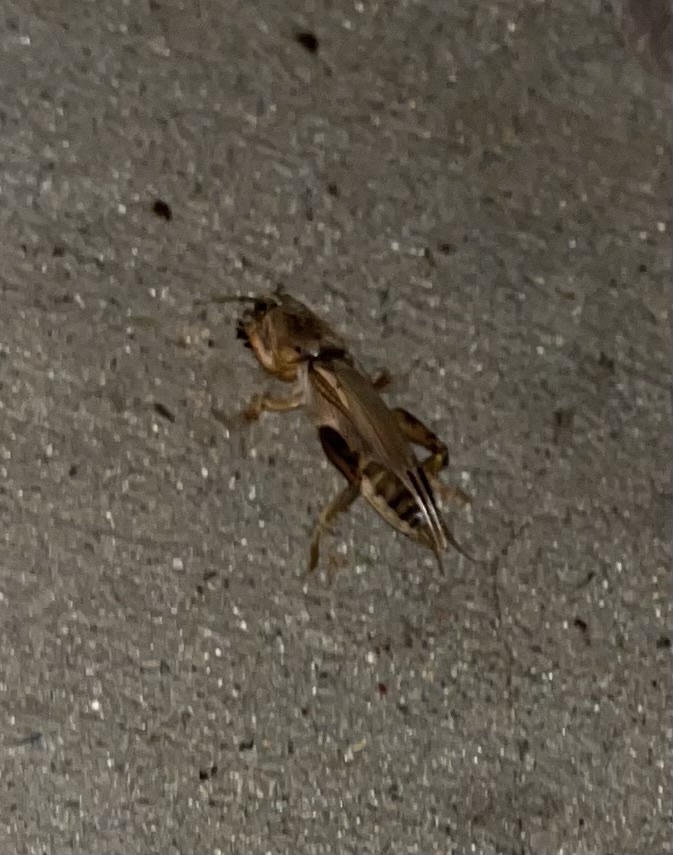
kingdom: Animalia
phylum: Arthropoda
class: Insecta
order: Orthoptera
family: Gryllotalpidae
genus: Neoscapteriscus
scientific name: Neoscapteriscus vicinus
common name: Tawny mole cricket
